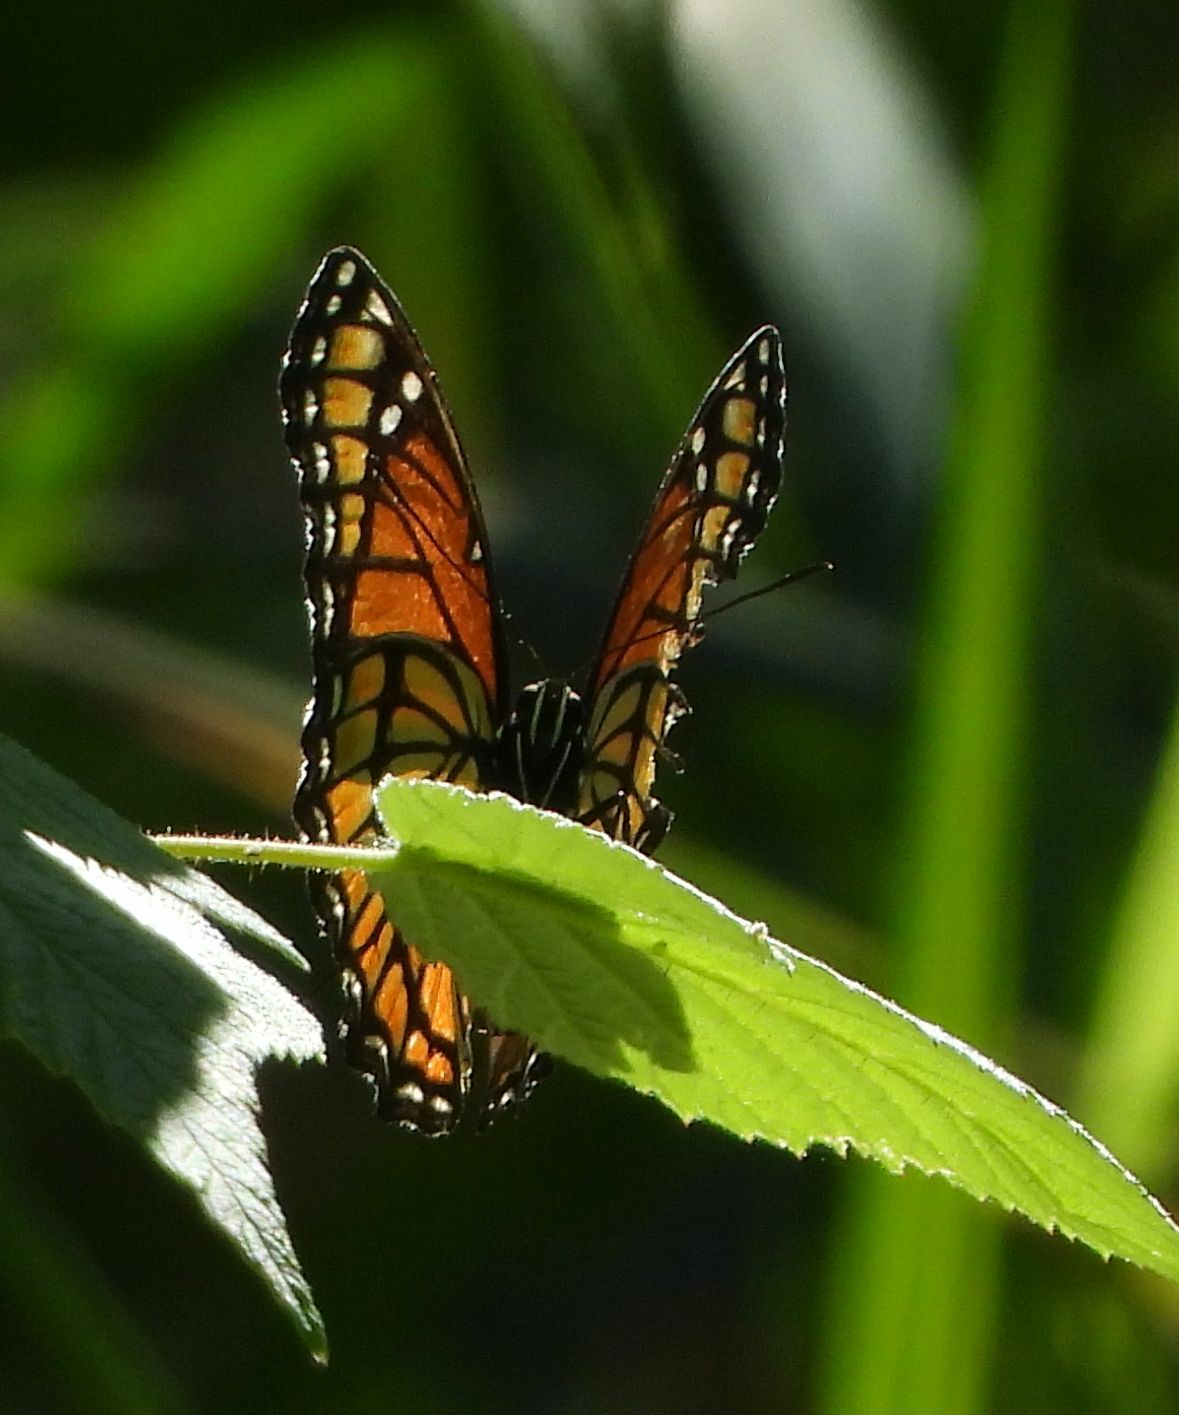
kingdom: Animalia
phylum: Arthropoda
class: Insecta
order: Lepidoptera
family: Nymphalidae
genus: Limenitis
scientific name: Limenitis archippus
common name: Viceroy
